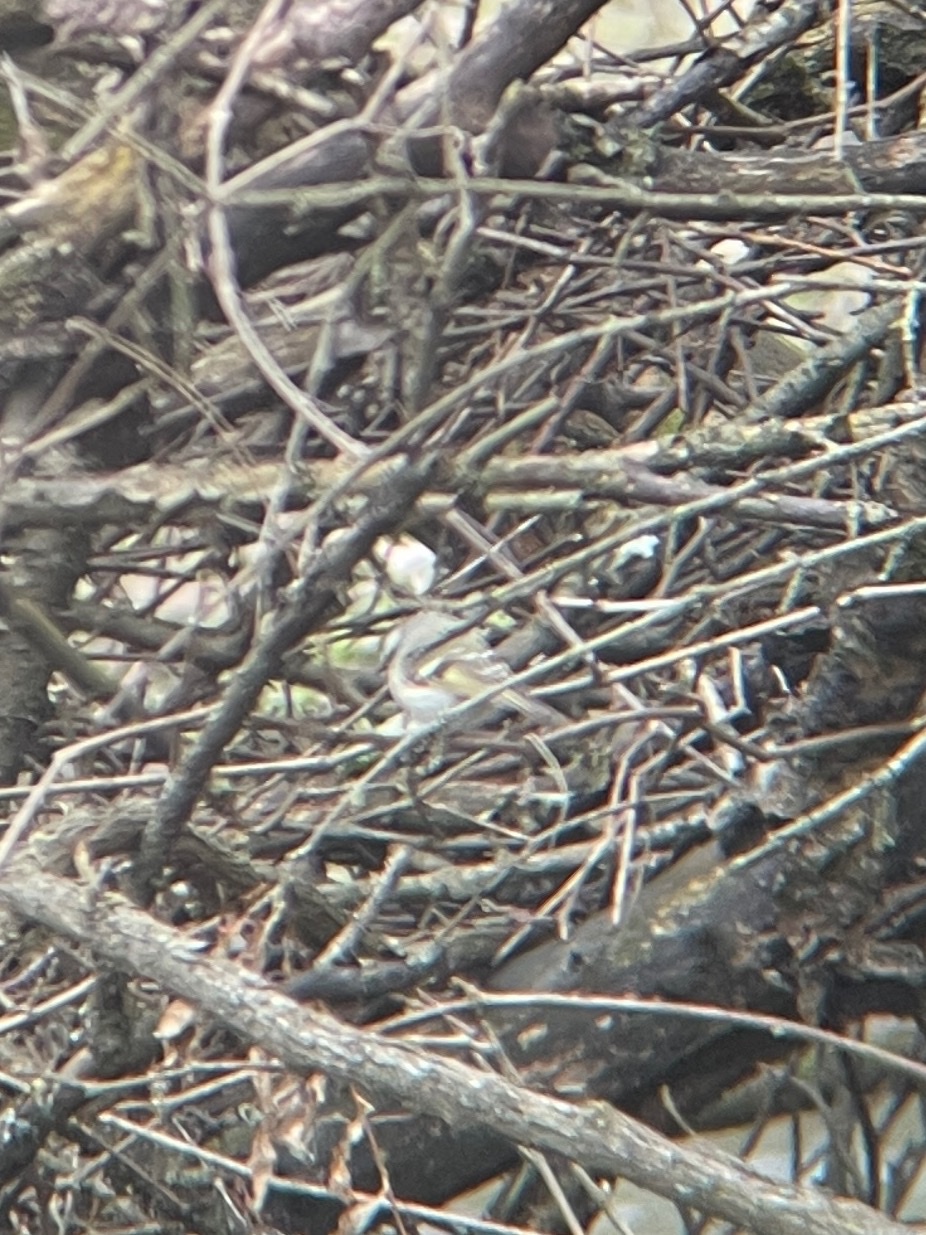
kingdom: Animalia
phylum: Chordata
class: Aves
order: Passeriformes
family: Regulidae
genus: Regulus
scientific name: Regulus satrapa
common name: Golden-crowned kinglet
